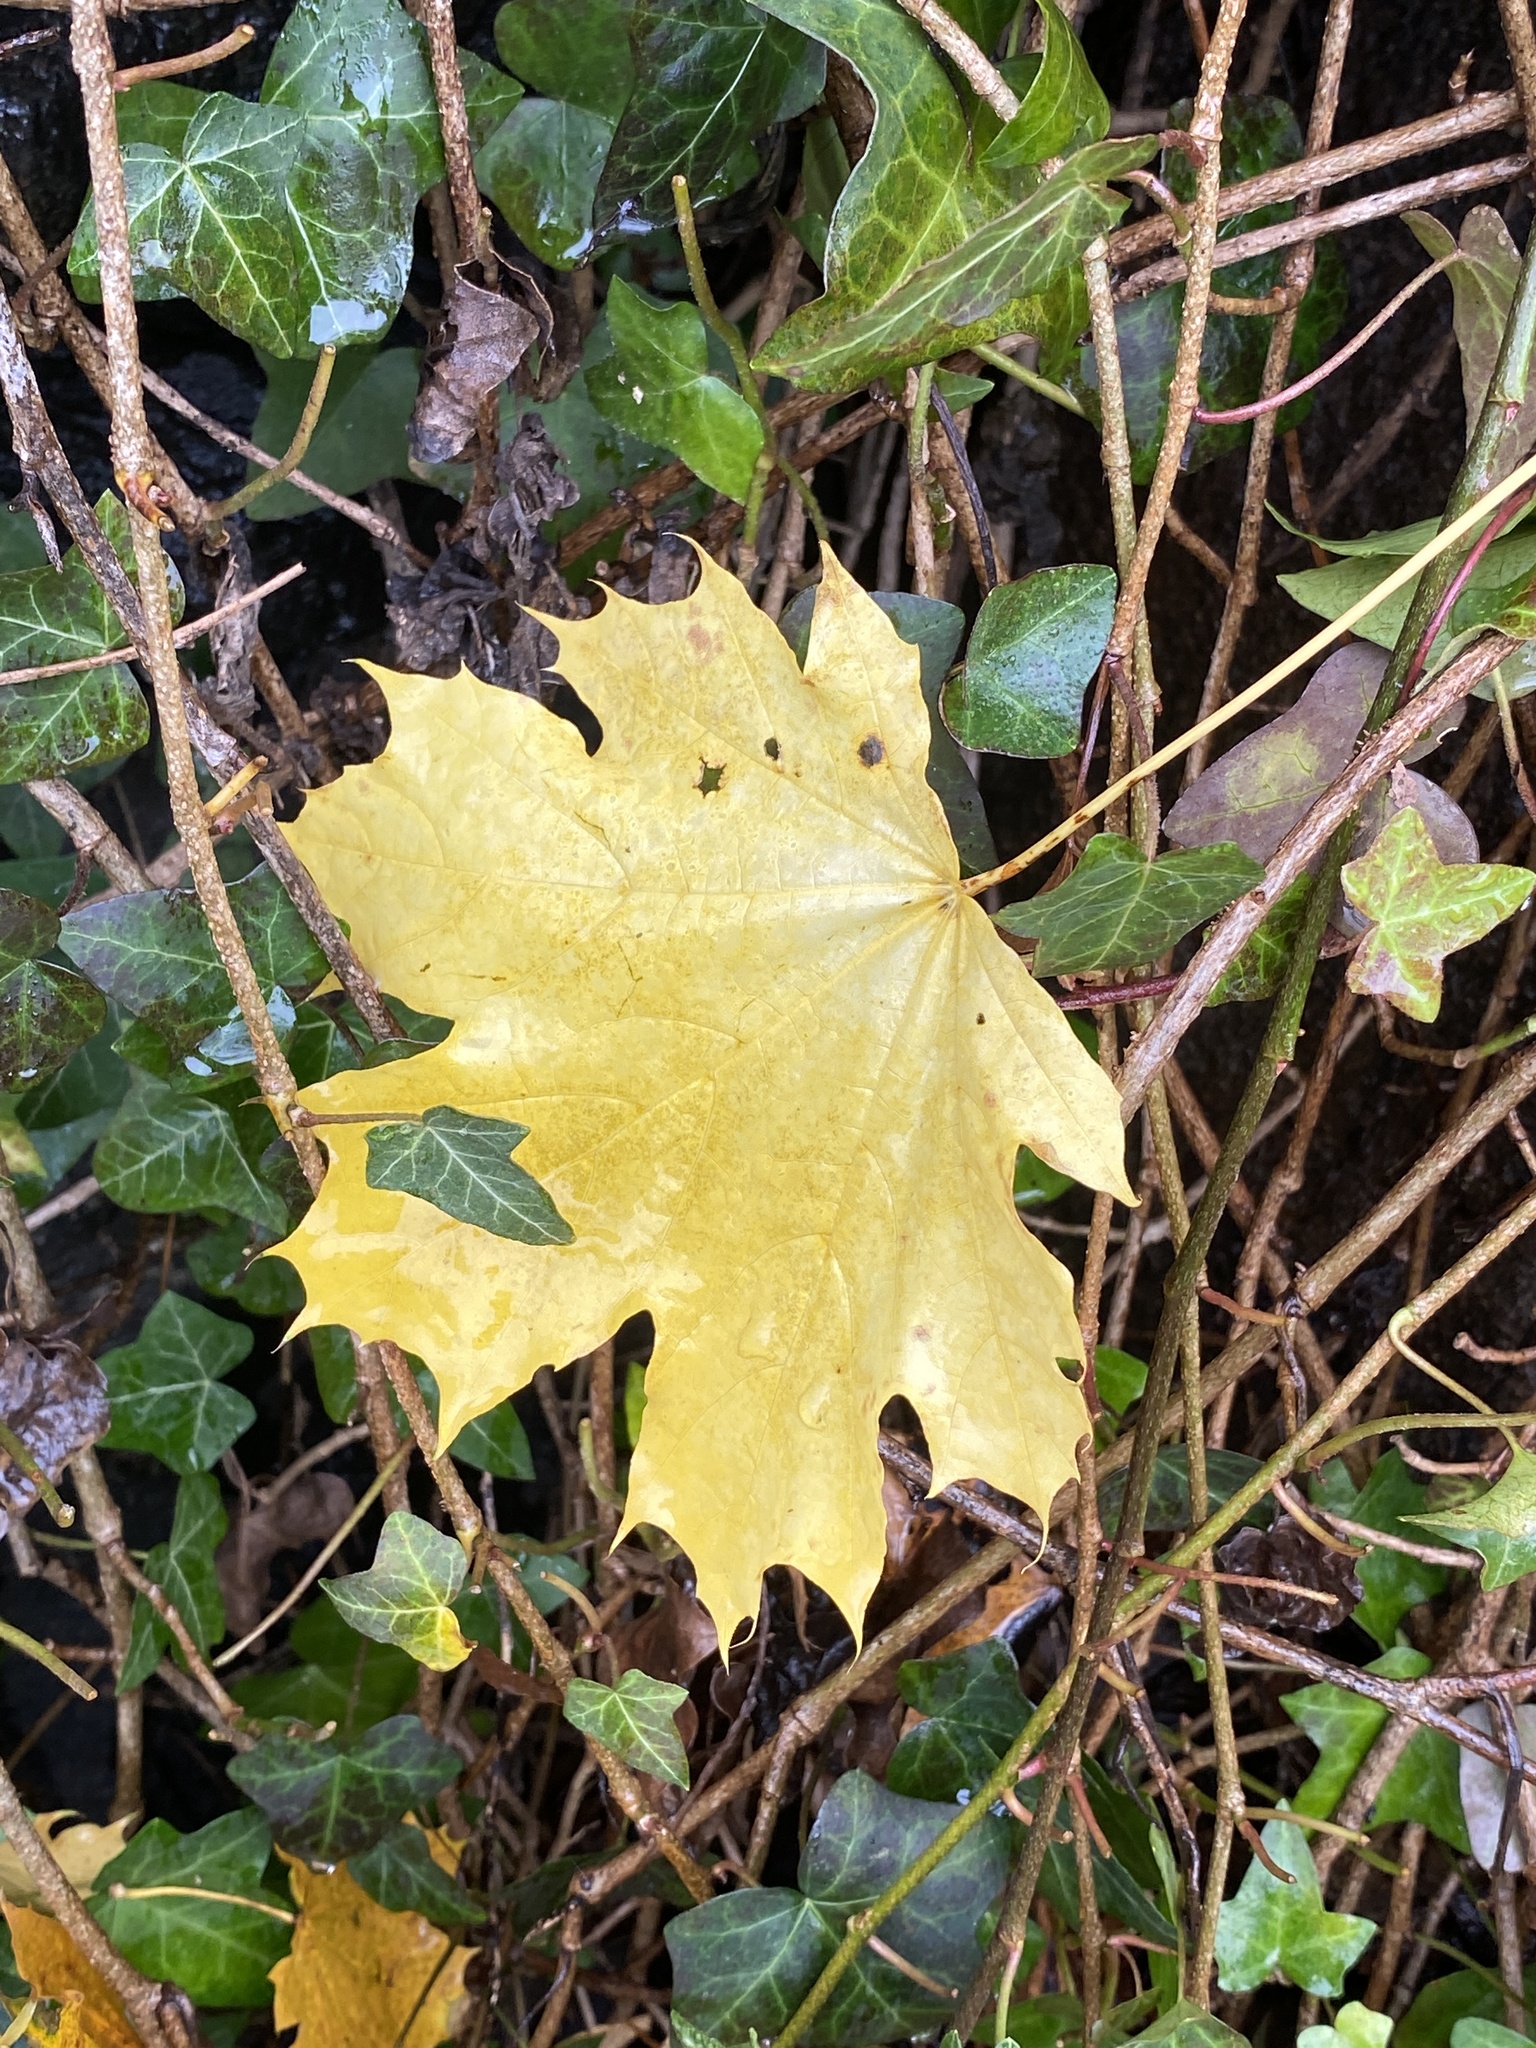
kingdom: Plantae
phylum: Tracheophyta
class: Magnoliopsida
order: Sapindales
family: Sapindaceae
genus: Acer
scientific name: Acer platanoides
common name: Norway maple
